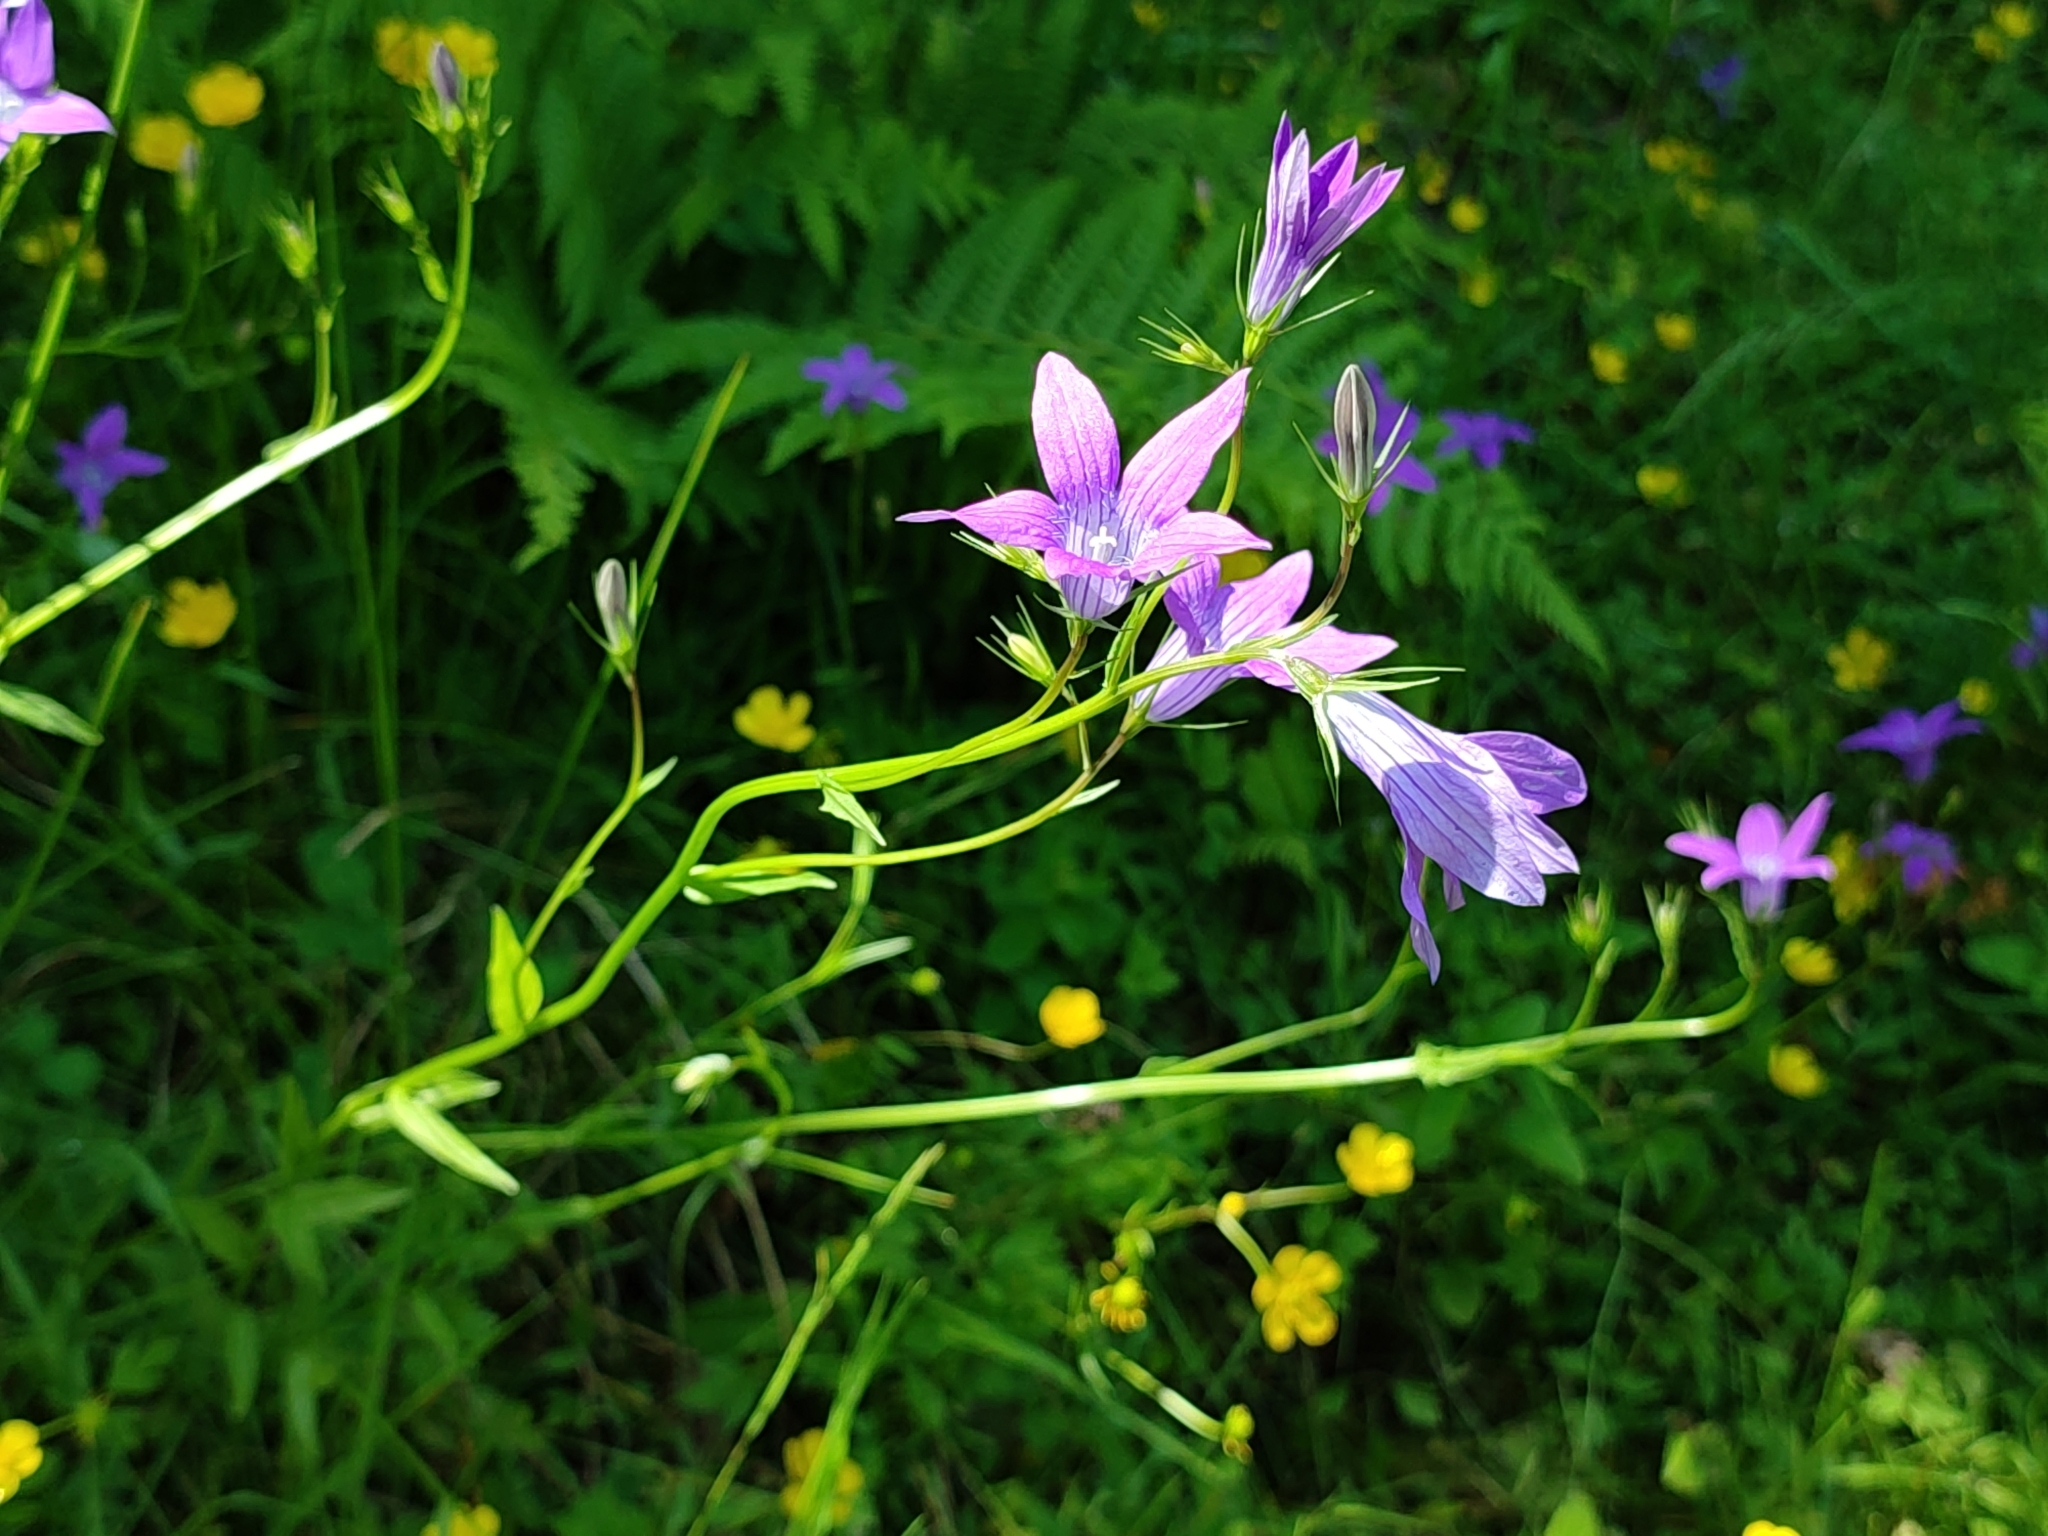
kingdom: Plantae
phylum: Tracheophyta
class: Magnoliopsida
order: Asterales
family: Campanulaceae
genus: Campanula
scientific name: Campanula patula
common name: Spreading bellflower
